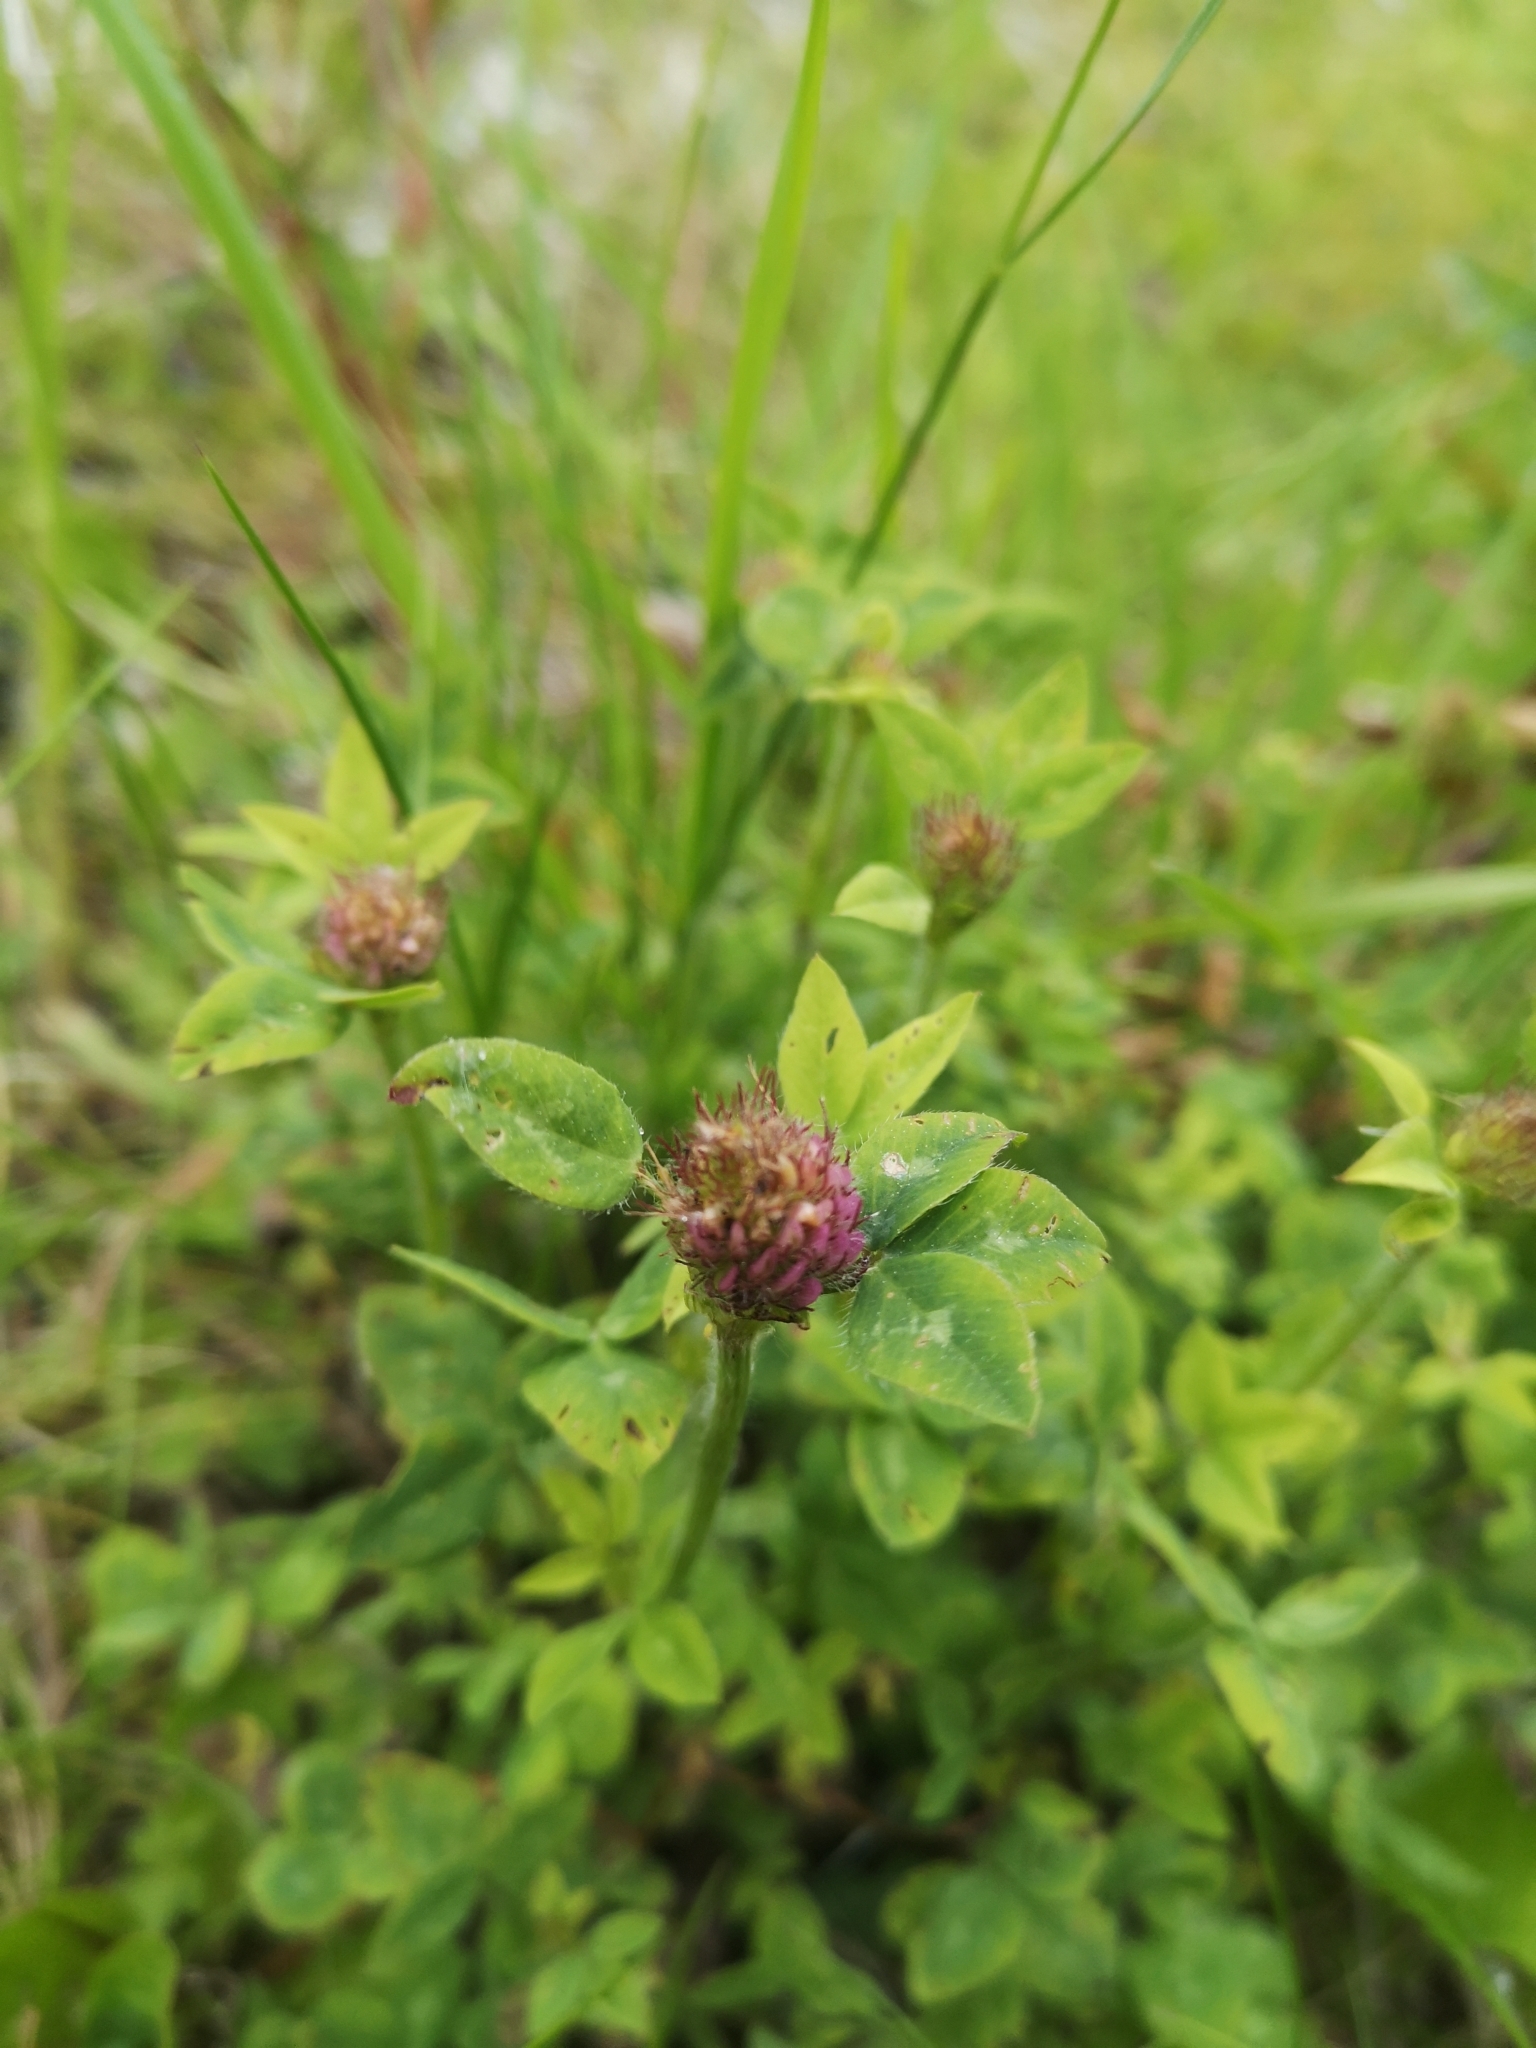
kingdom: Plantae
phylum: Tracheophyta
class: Magnoliopsida
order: Fabales
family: Fabaceae
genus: Trifolium
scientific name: Trifolium pratense
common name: Red clover
